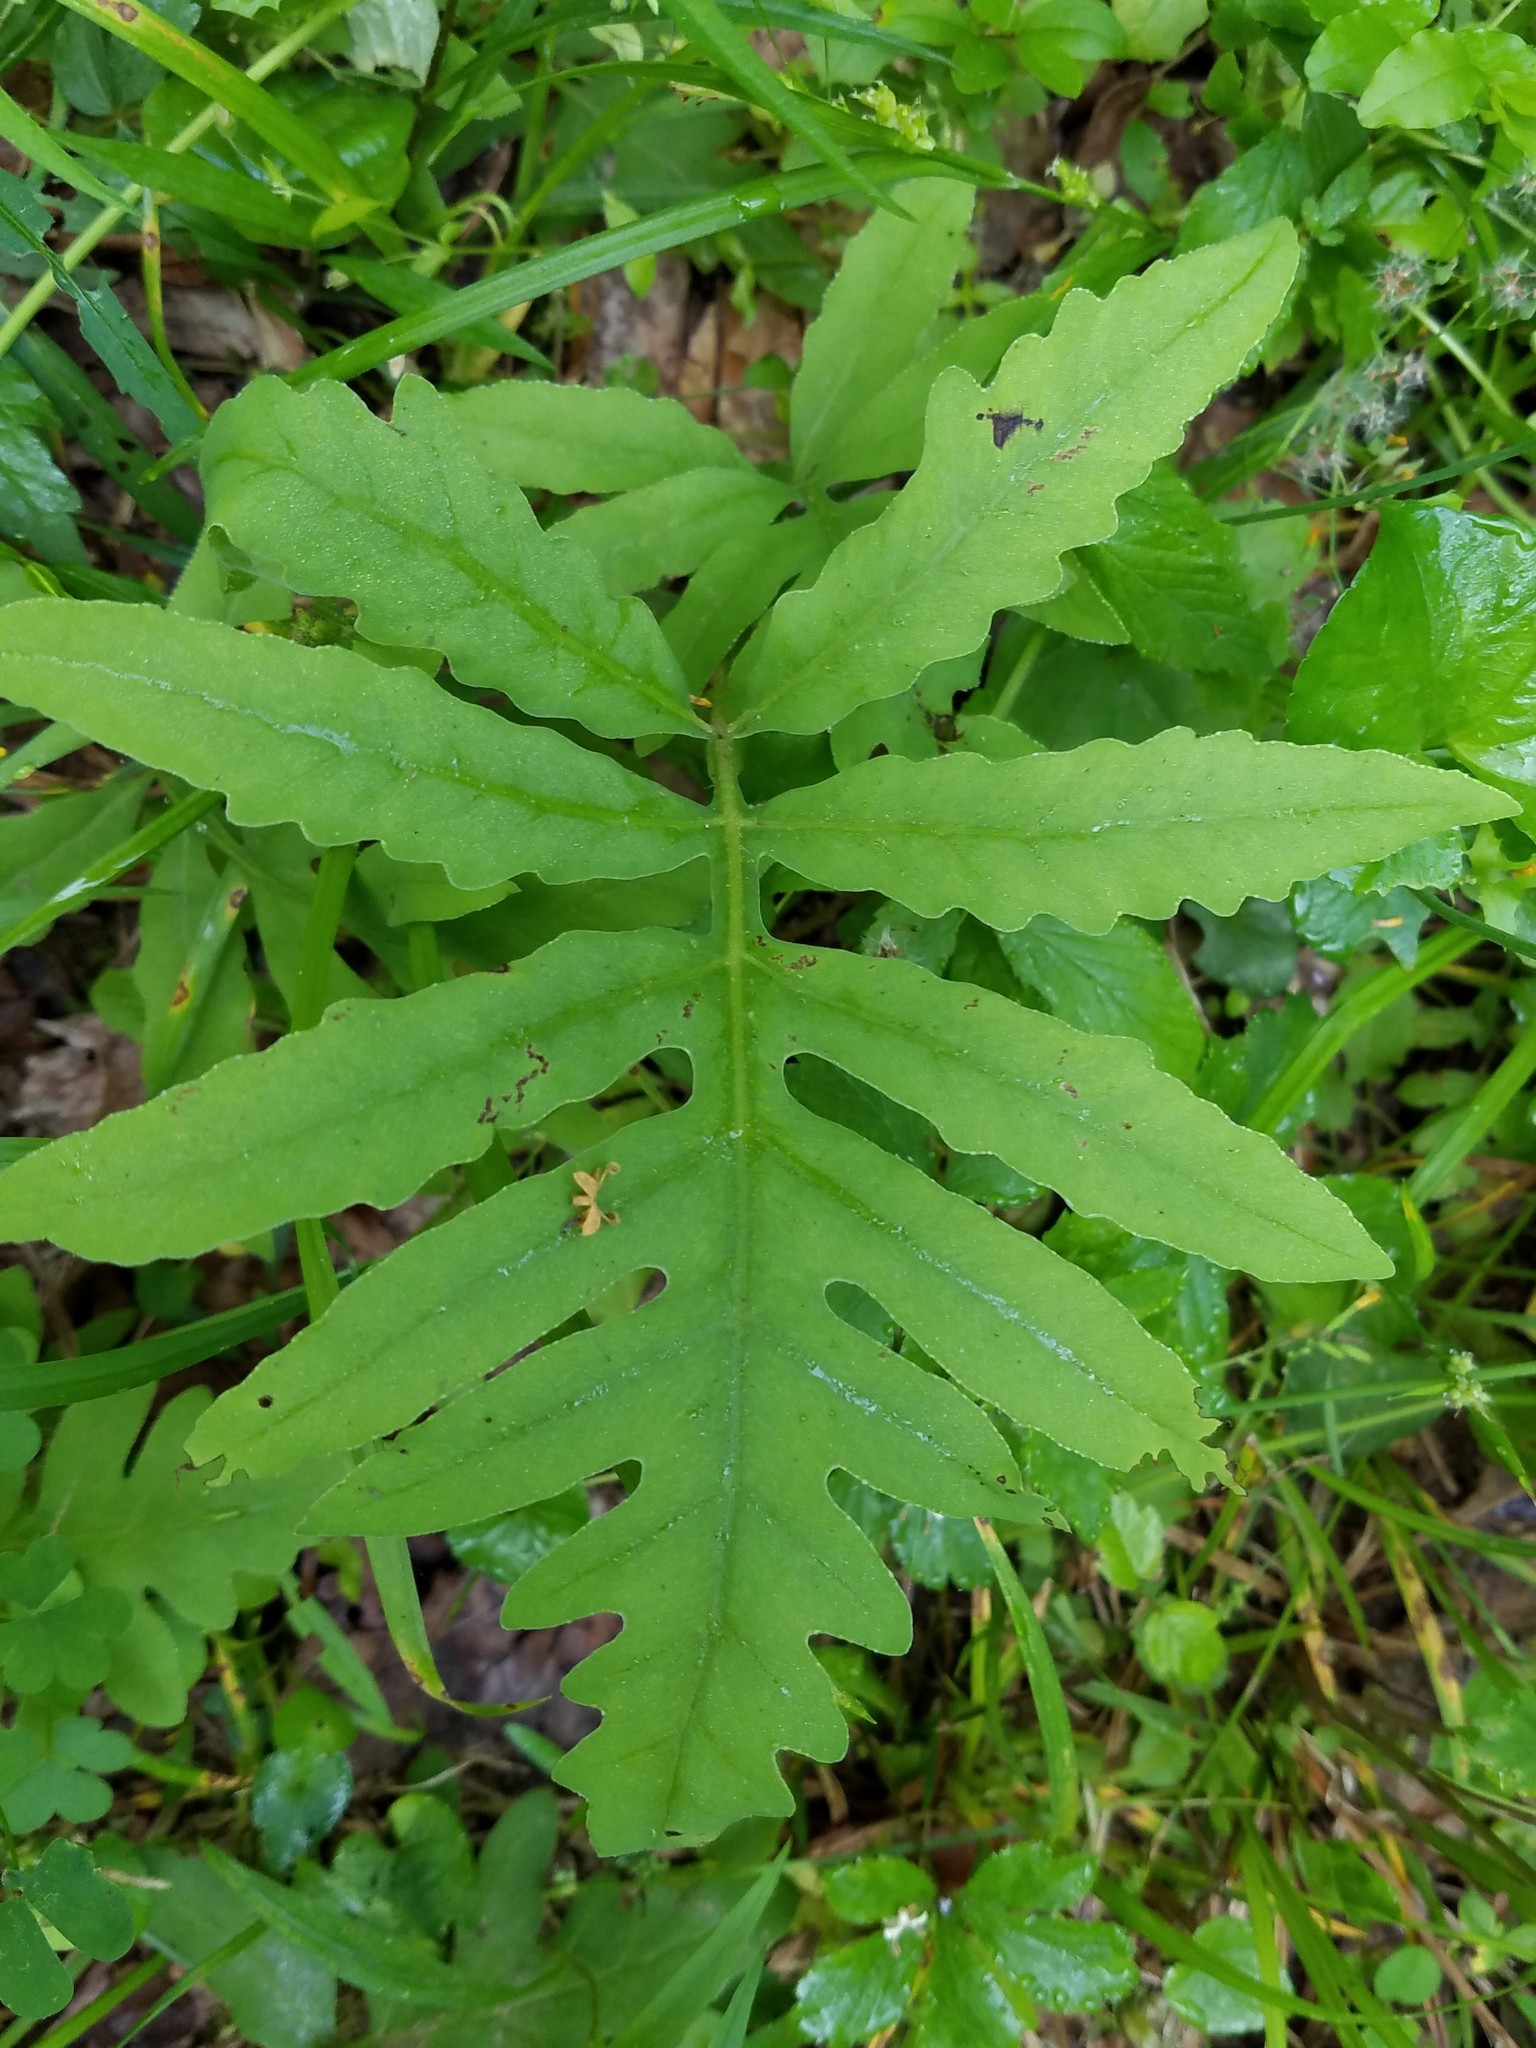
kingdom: Plantae
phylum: Tracheophyta
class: Polypodiopsida
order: Polypodiales
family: Onocleaceae
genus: Onoclea
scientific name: Onoclea sensibilis
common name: Sensitive fern
